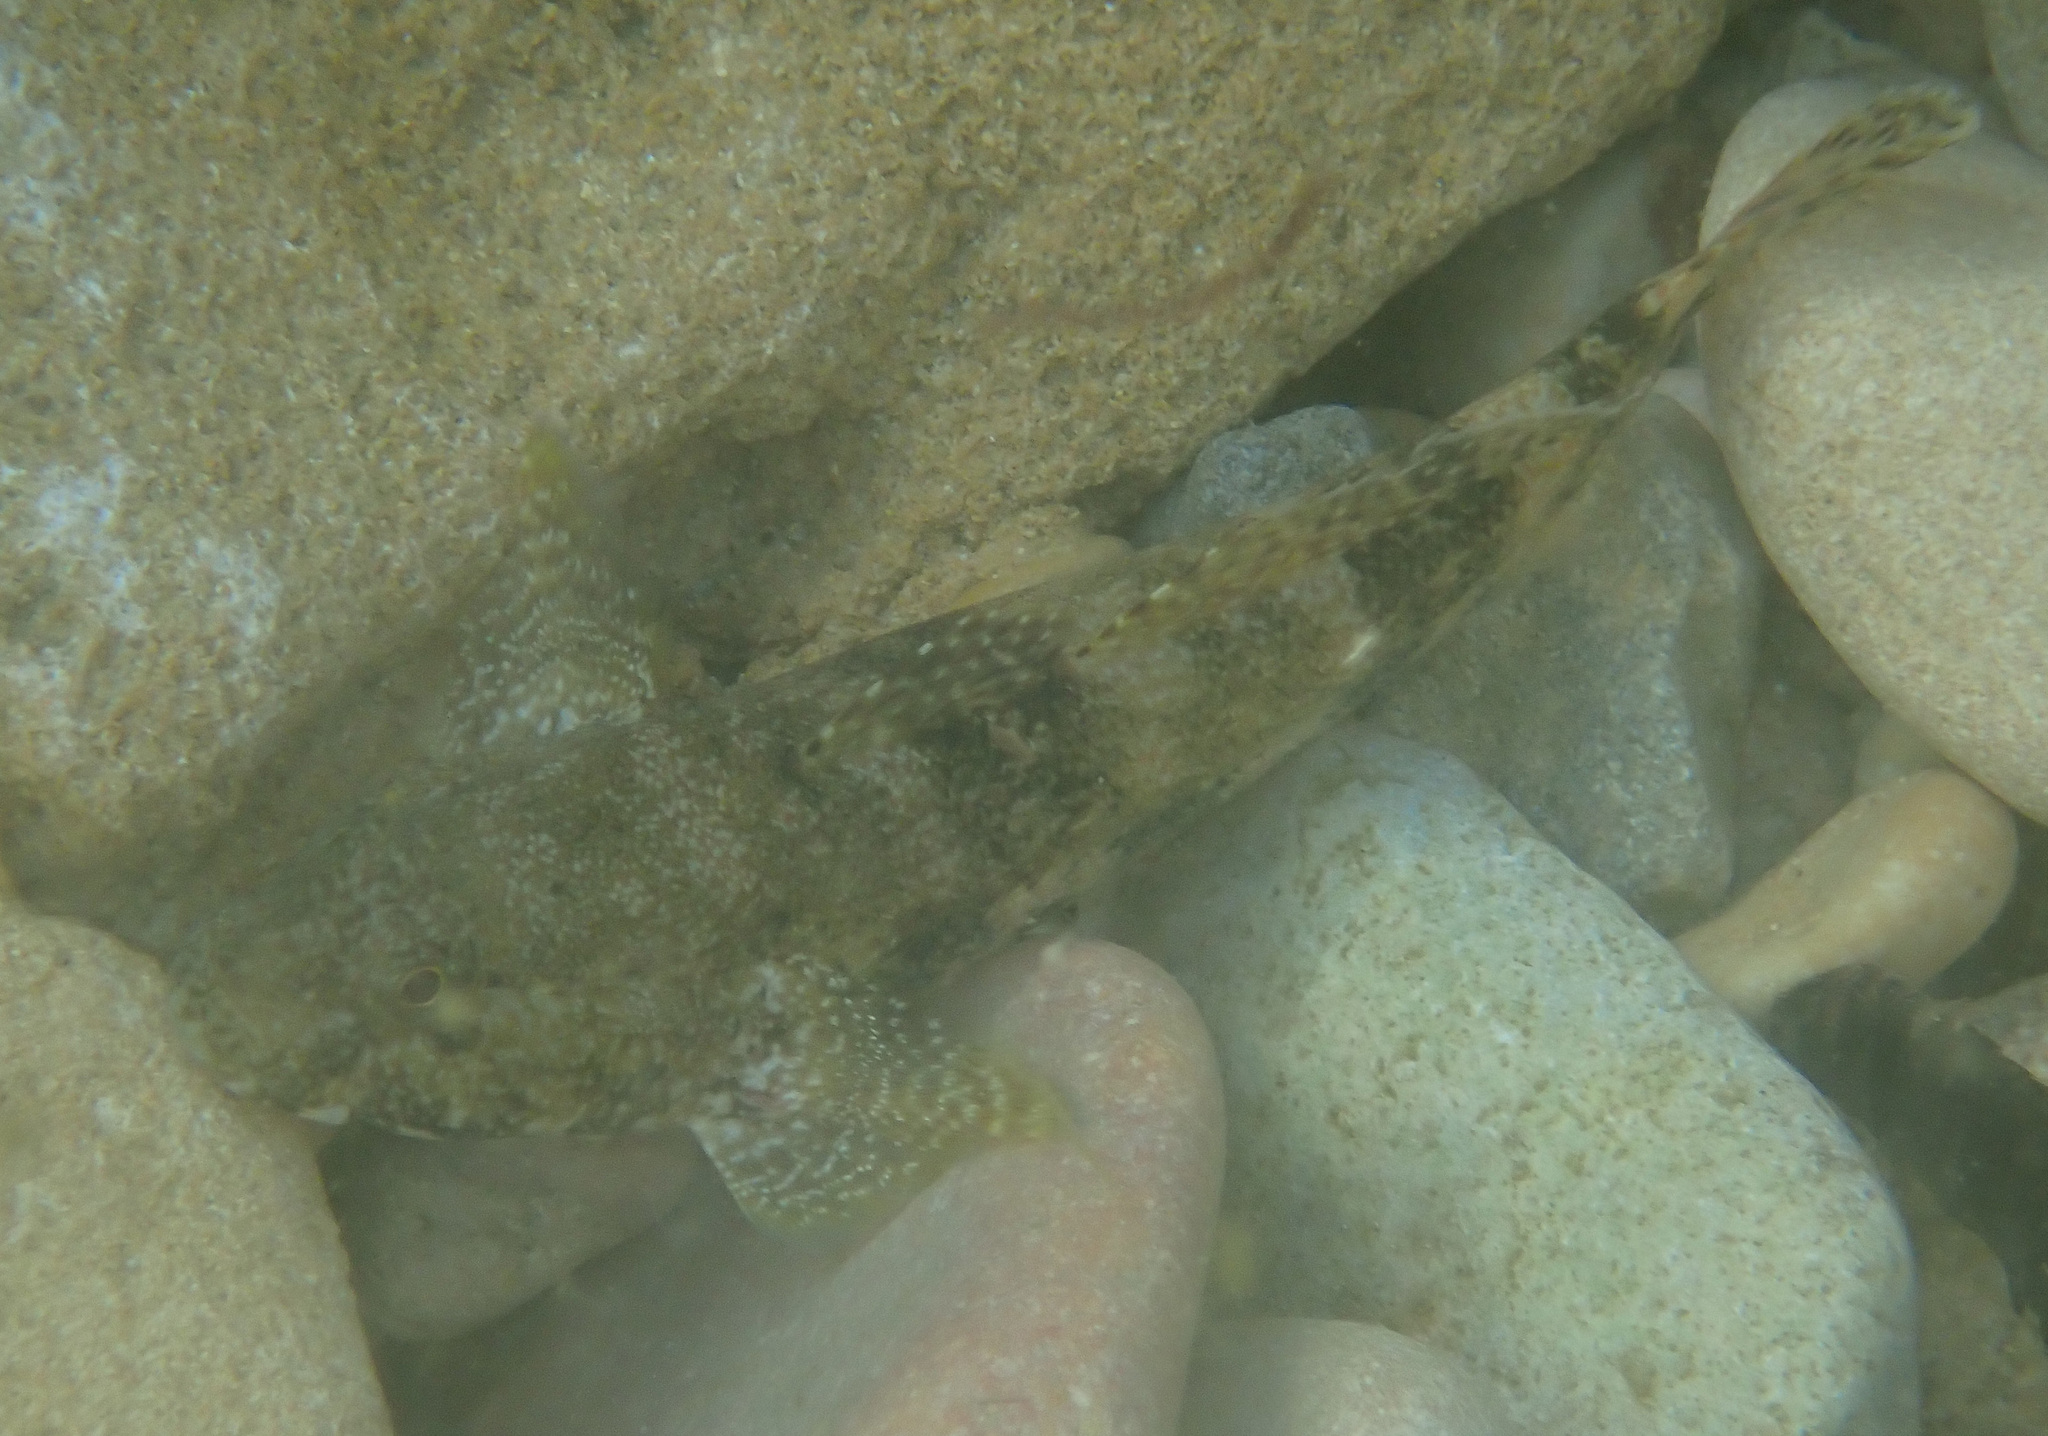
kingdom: Animalia
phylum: Chordata
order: Perciformes
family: Gobiidae
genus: Gobius
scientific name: Gobius cobitis
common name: Giant goby
